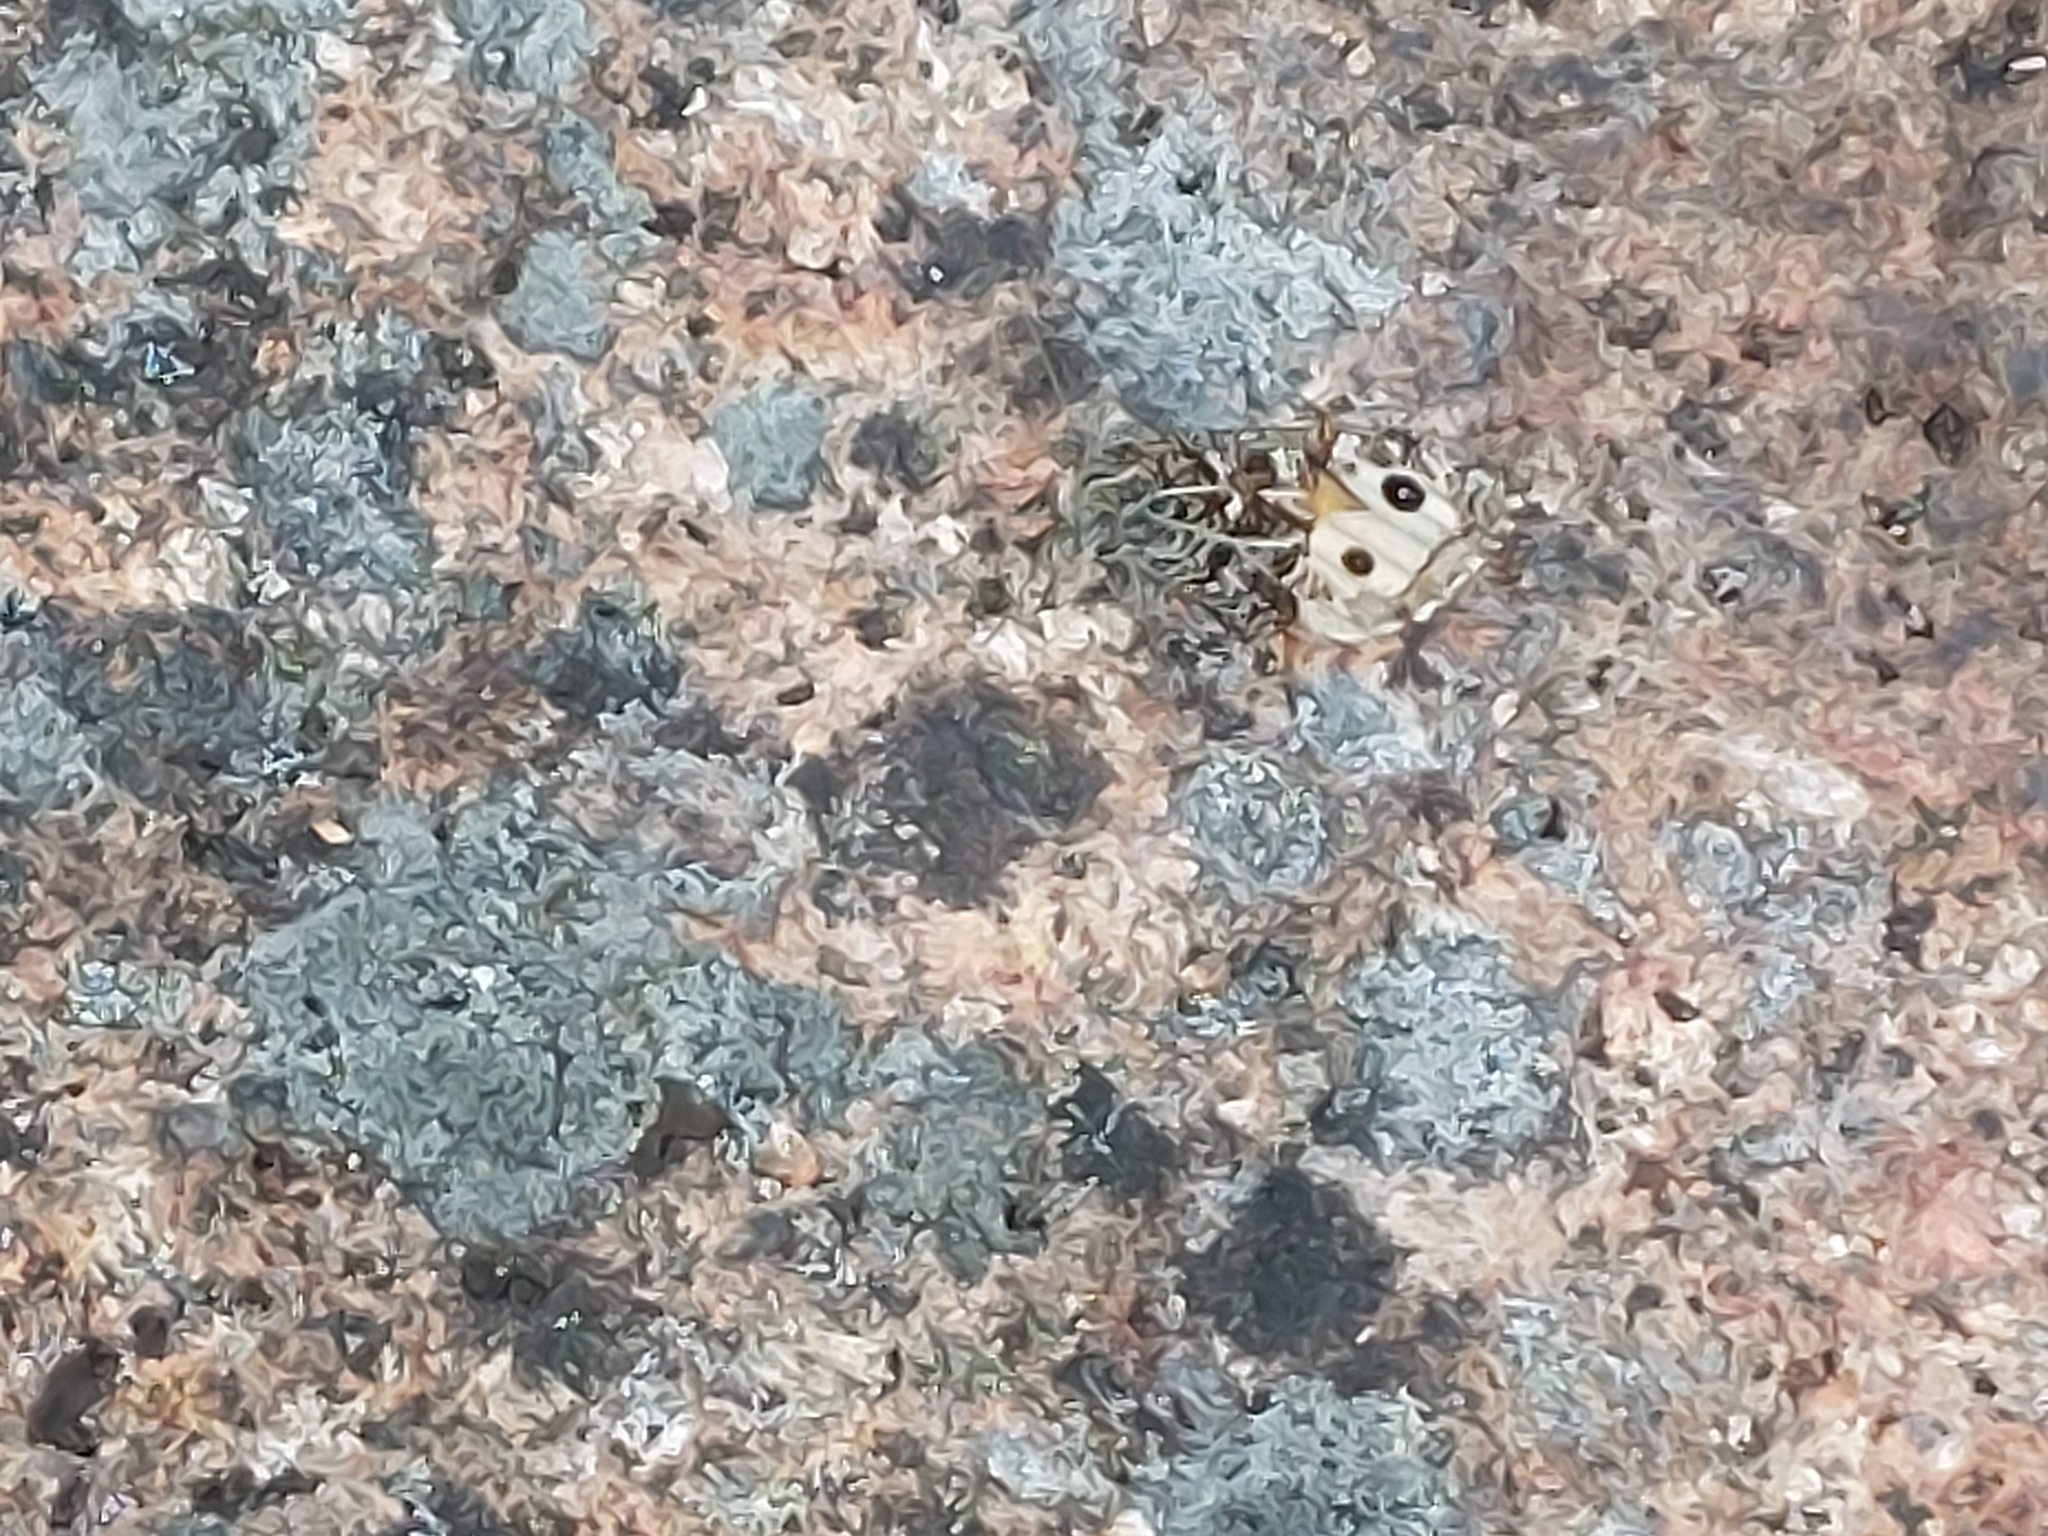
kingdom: Animalia
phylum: Arthropoda
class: Insecta
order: Lepidoptera
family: Nymphalidae
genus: Hipparchia
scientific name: Hipparchia semele
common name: Grayling
